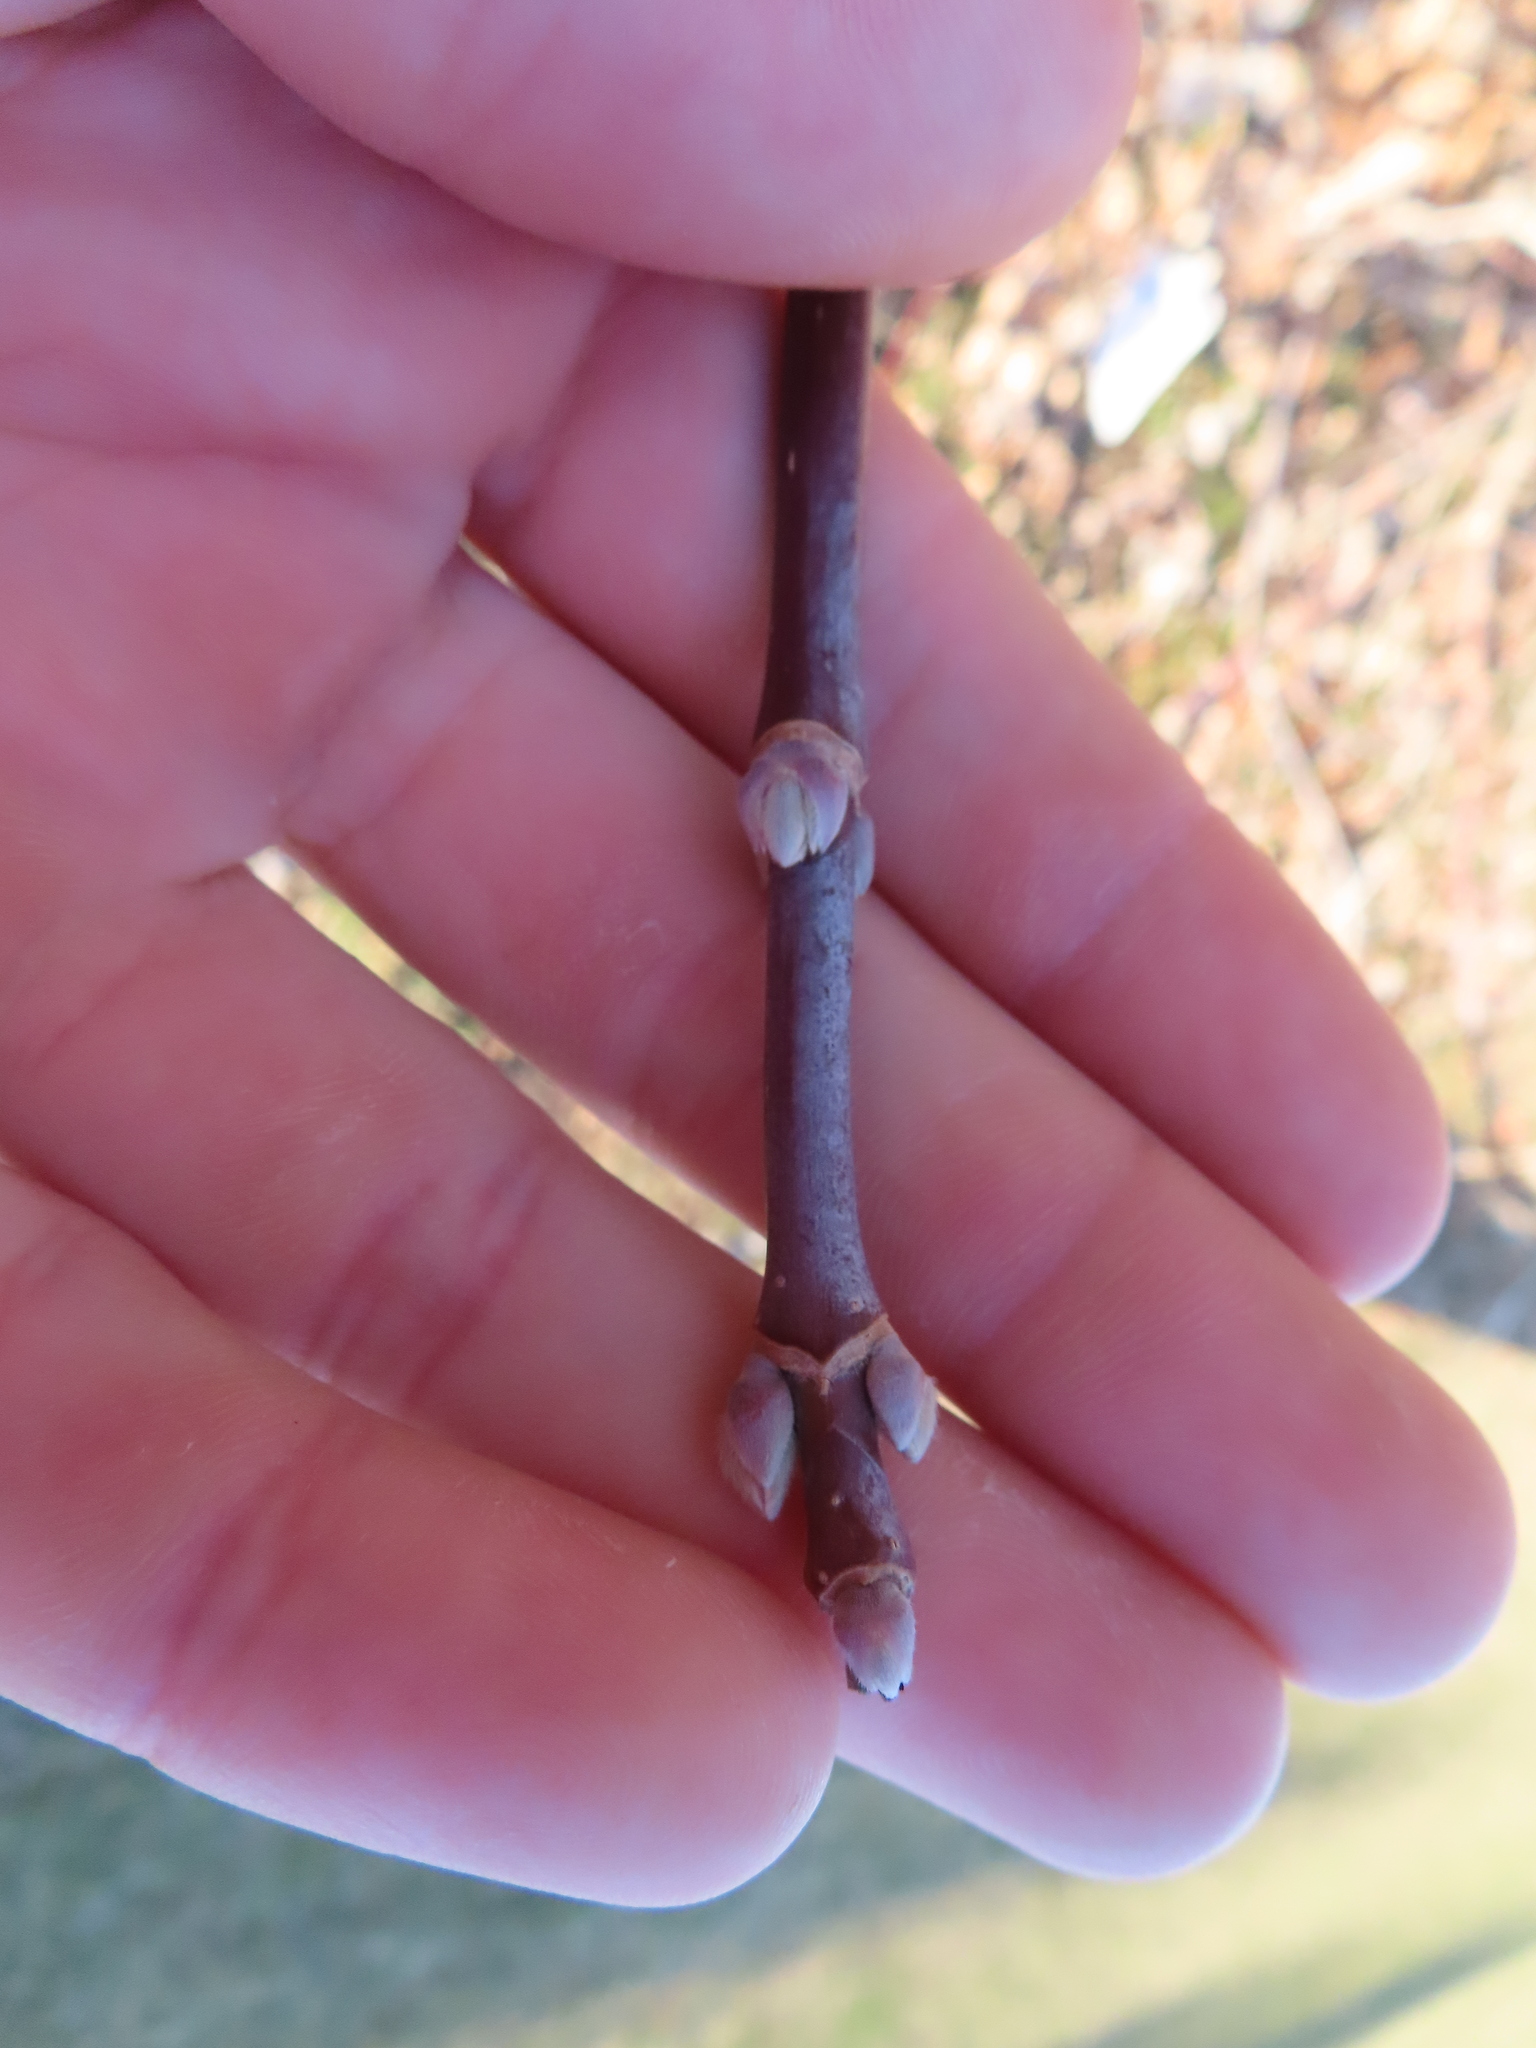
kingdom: Plantae
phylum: Tracheophyta
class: Magnoliopsida
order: Sapindales
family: Sapindaceae
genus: Acer
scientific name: Acer negundo
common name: Ashleaf maple
